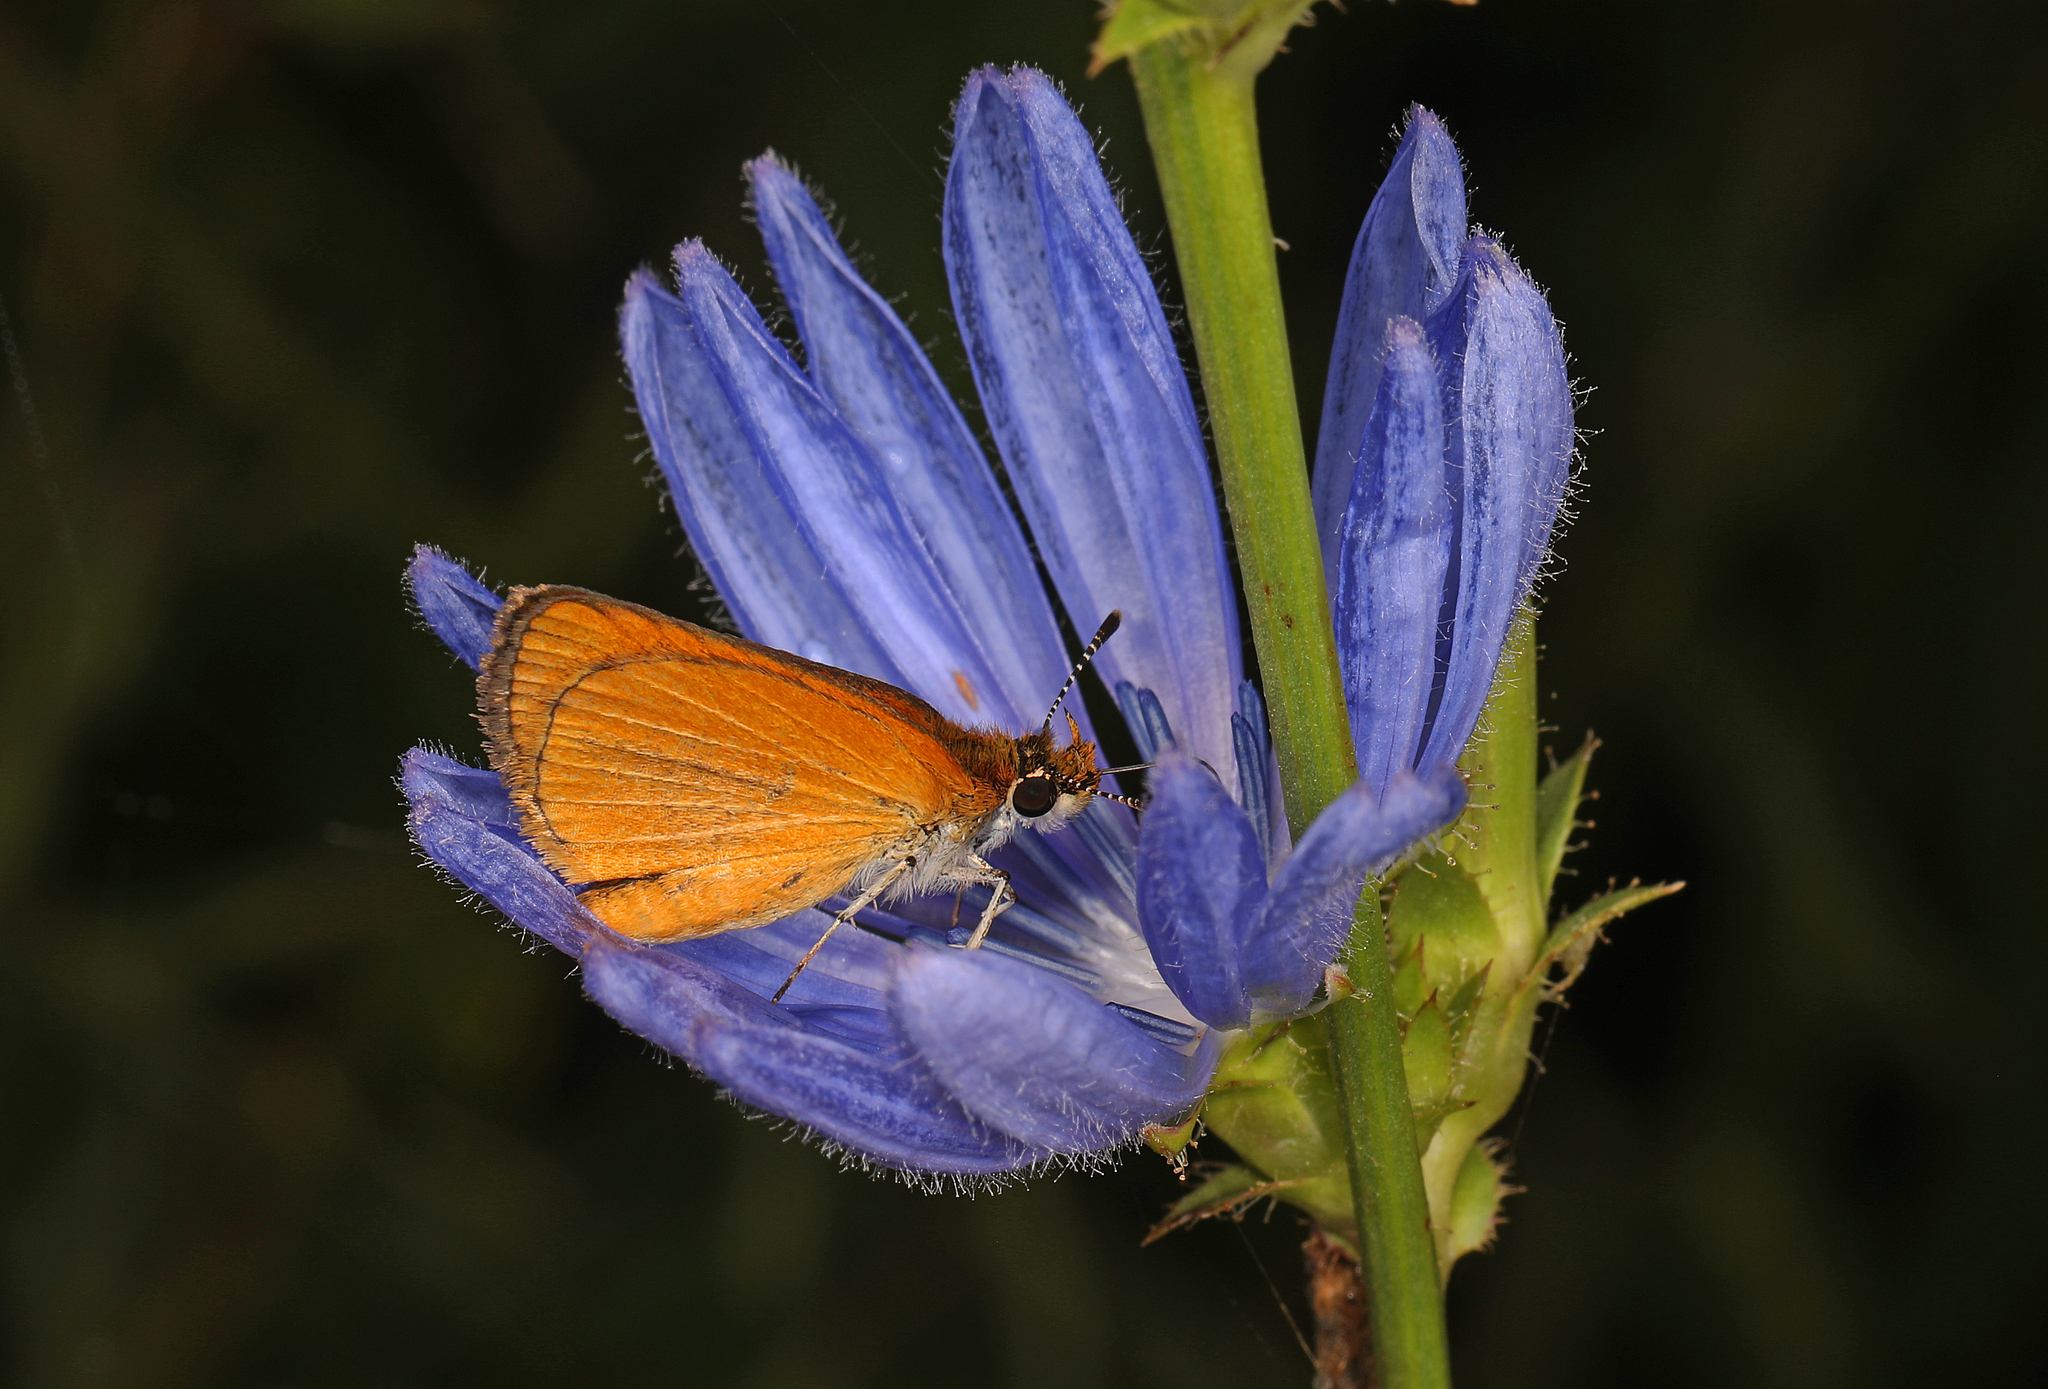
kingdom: Animalia
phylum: Arthropoda
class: Insecta
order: Lepidoptera
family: Hesperiidae
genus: Ancyloxypha
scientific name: Ancyloxypha numitor
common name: Least skipper
